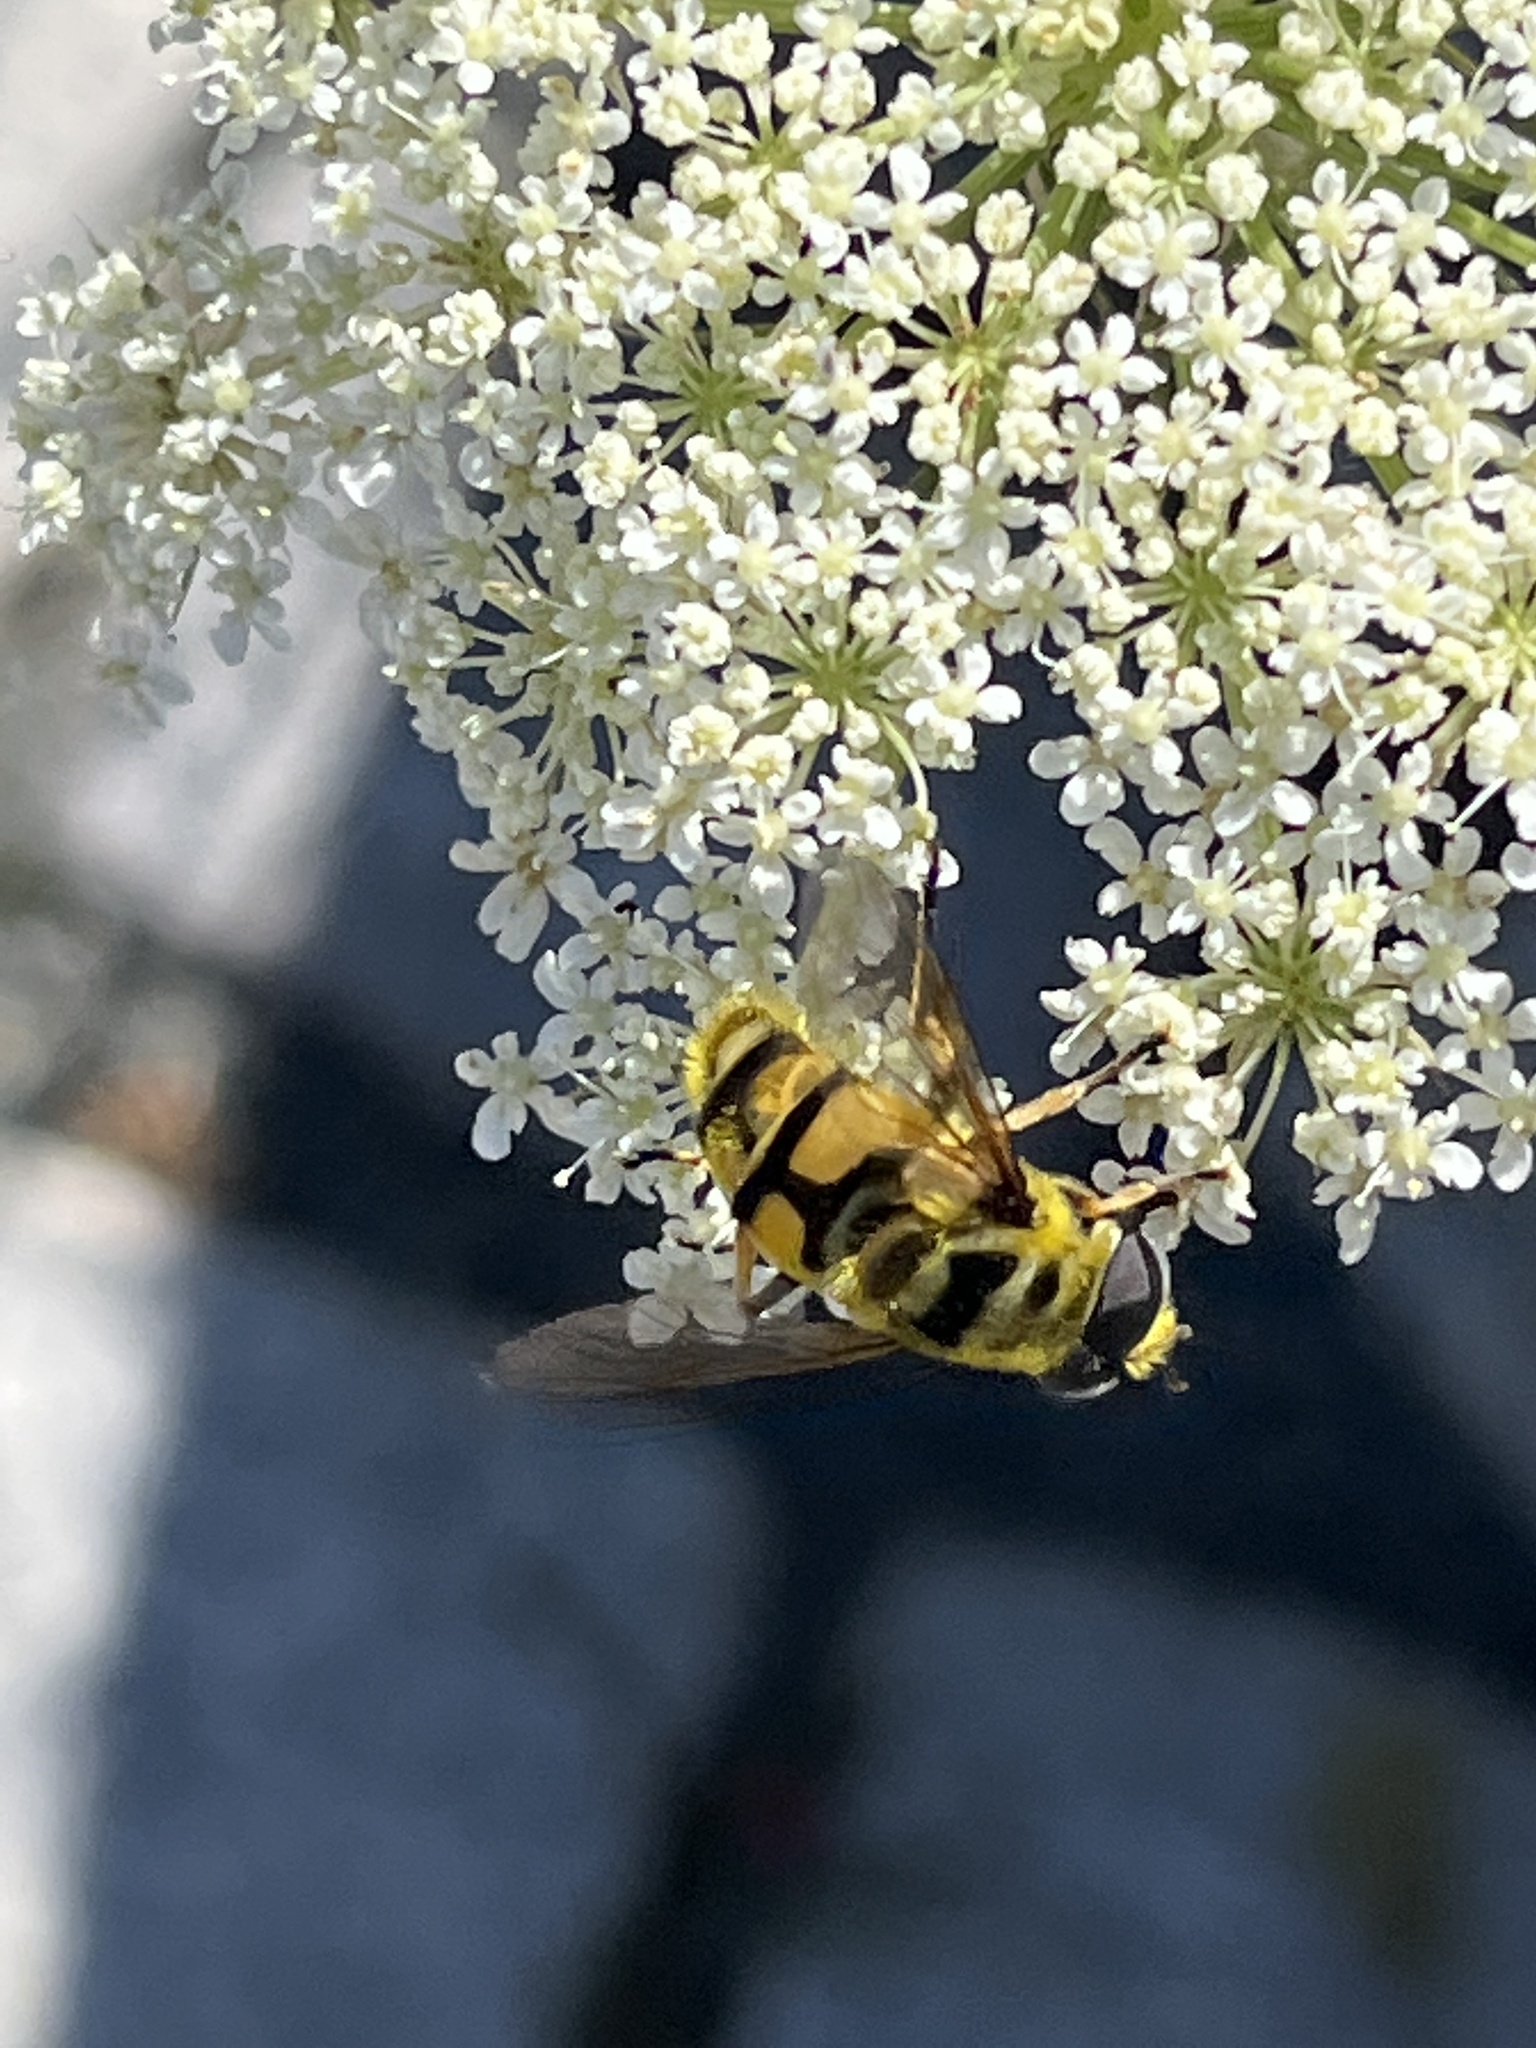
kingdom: Animalia
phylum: Arthropoda
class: Insecta
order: Diptera
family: Syrphidae
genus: Myathropa
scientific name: Myathropa florea
